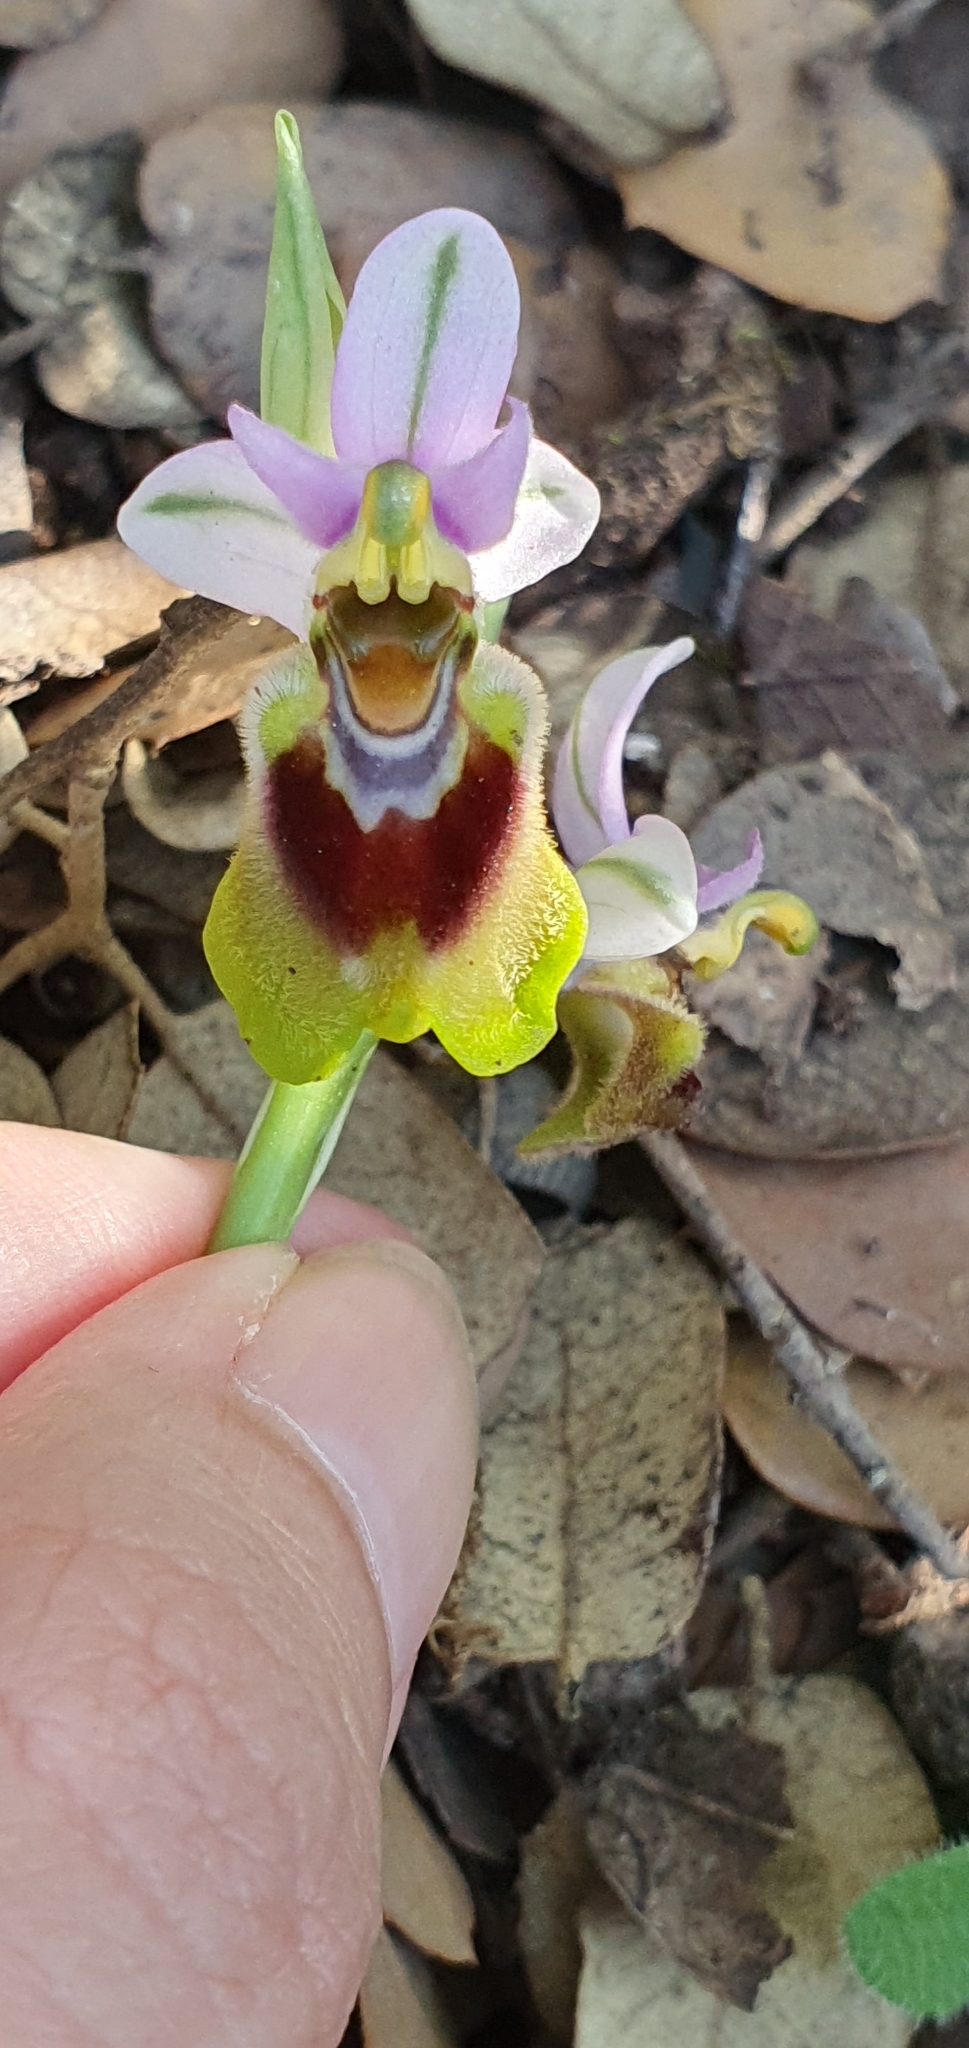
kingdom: Plantae
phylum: Tracheophyta
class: Liliopsida
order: Asparagales
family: Orchidaceae
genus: Ophrys
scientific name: Ophrys tenthredinifera
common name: Sawfly orchid
